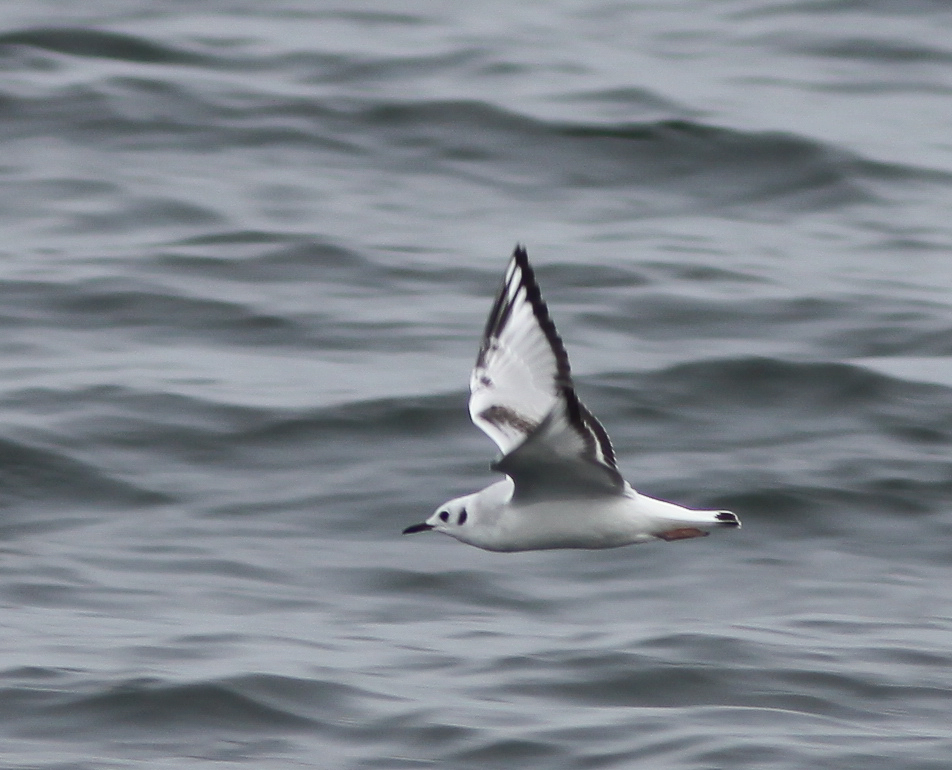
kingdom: Animalia
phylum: Chordata
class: Aves
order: Charadriiformes
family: Laridae
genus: Chroicocephalus
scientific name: Chroicocephalus philadelphia
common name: Bonaparte's gull
